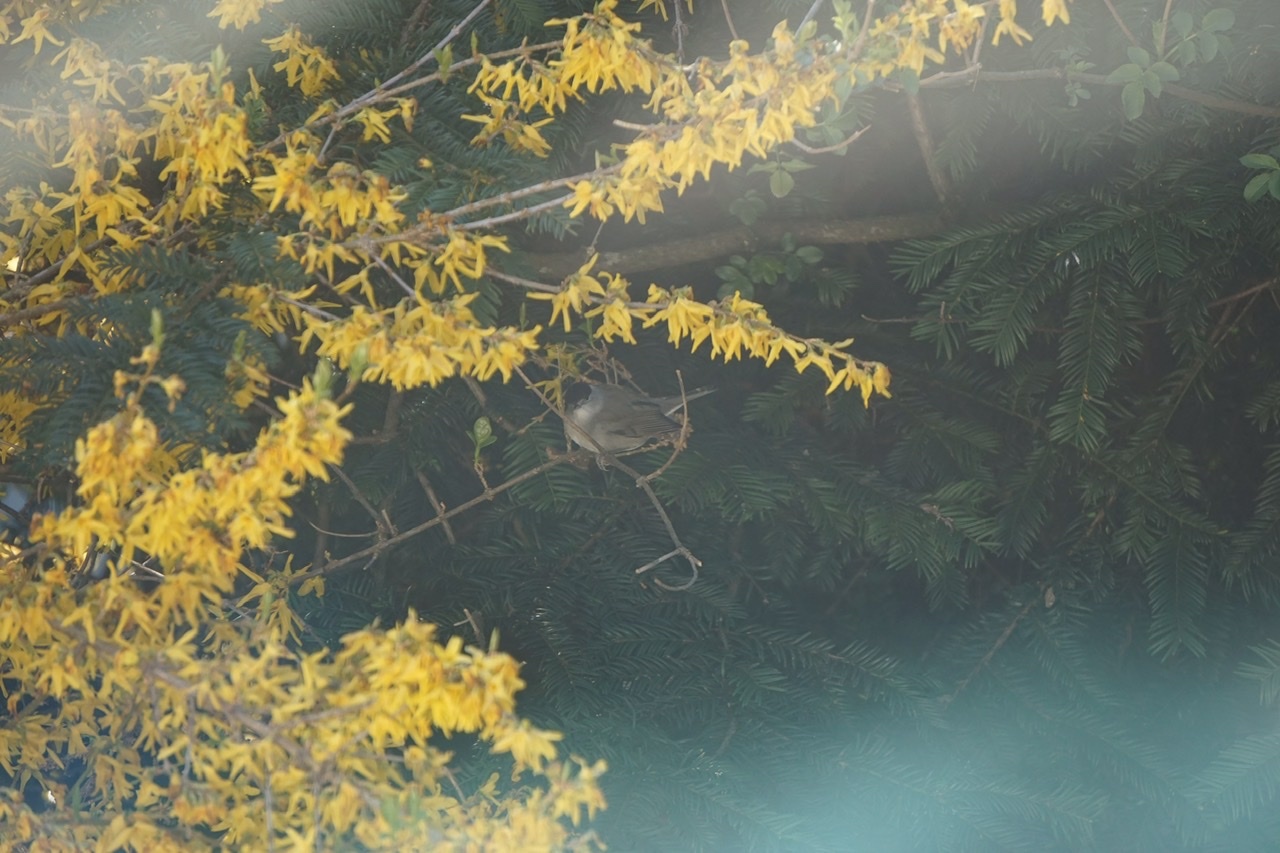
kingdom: Animalia
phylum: Chordata
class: Aves
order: Passeriformes
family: Sylviidae
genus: Sylvia
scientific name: Sylvia atricapilla
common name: Eurasian blackcap
